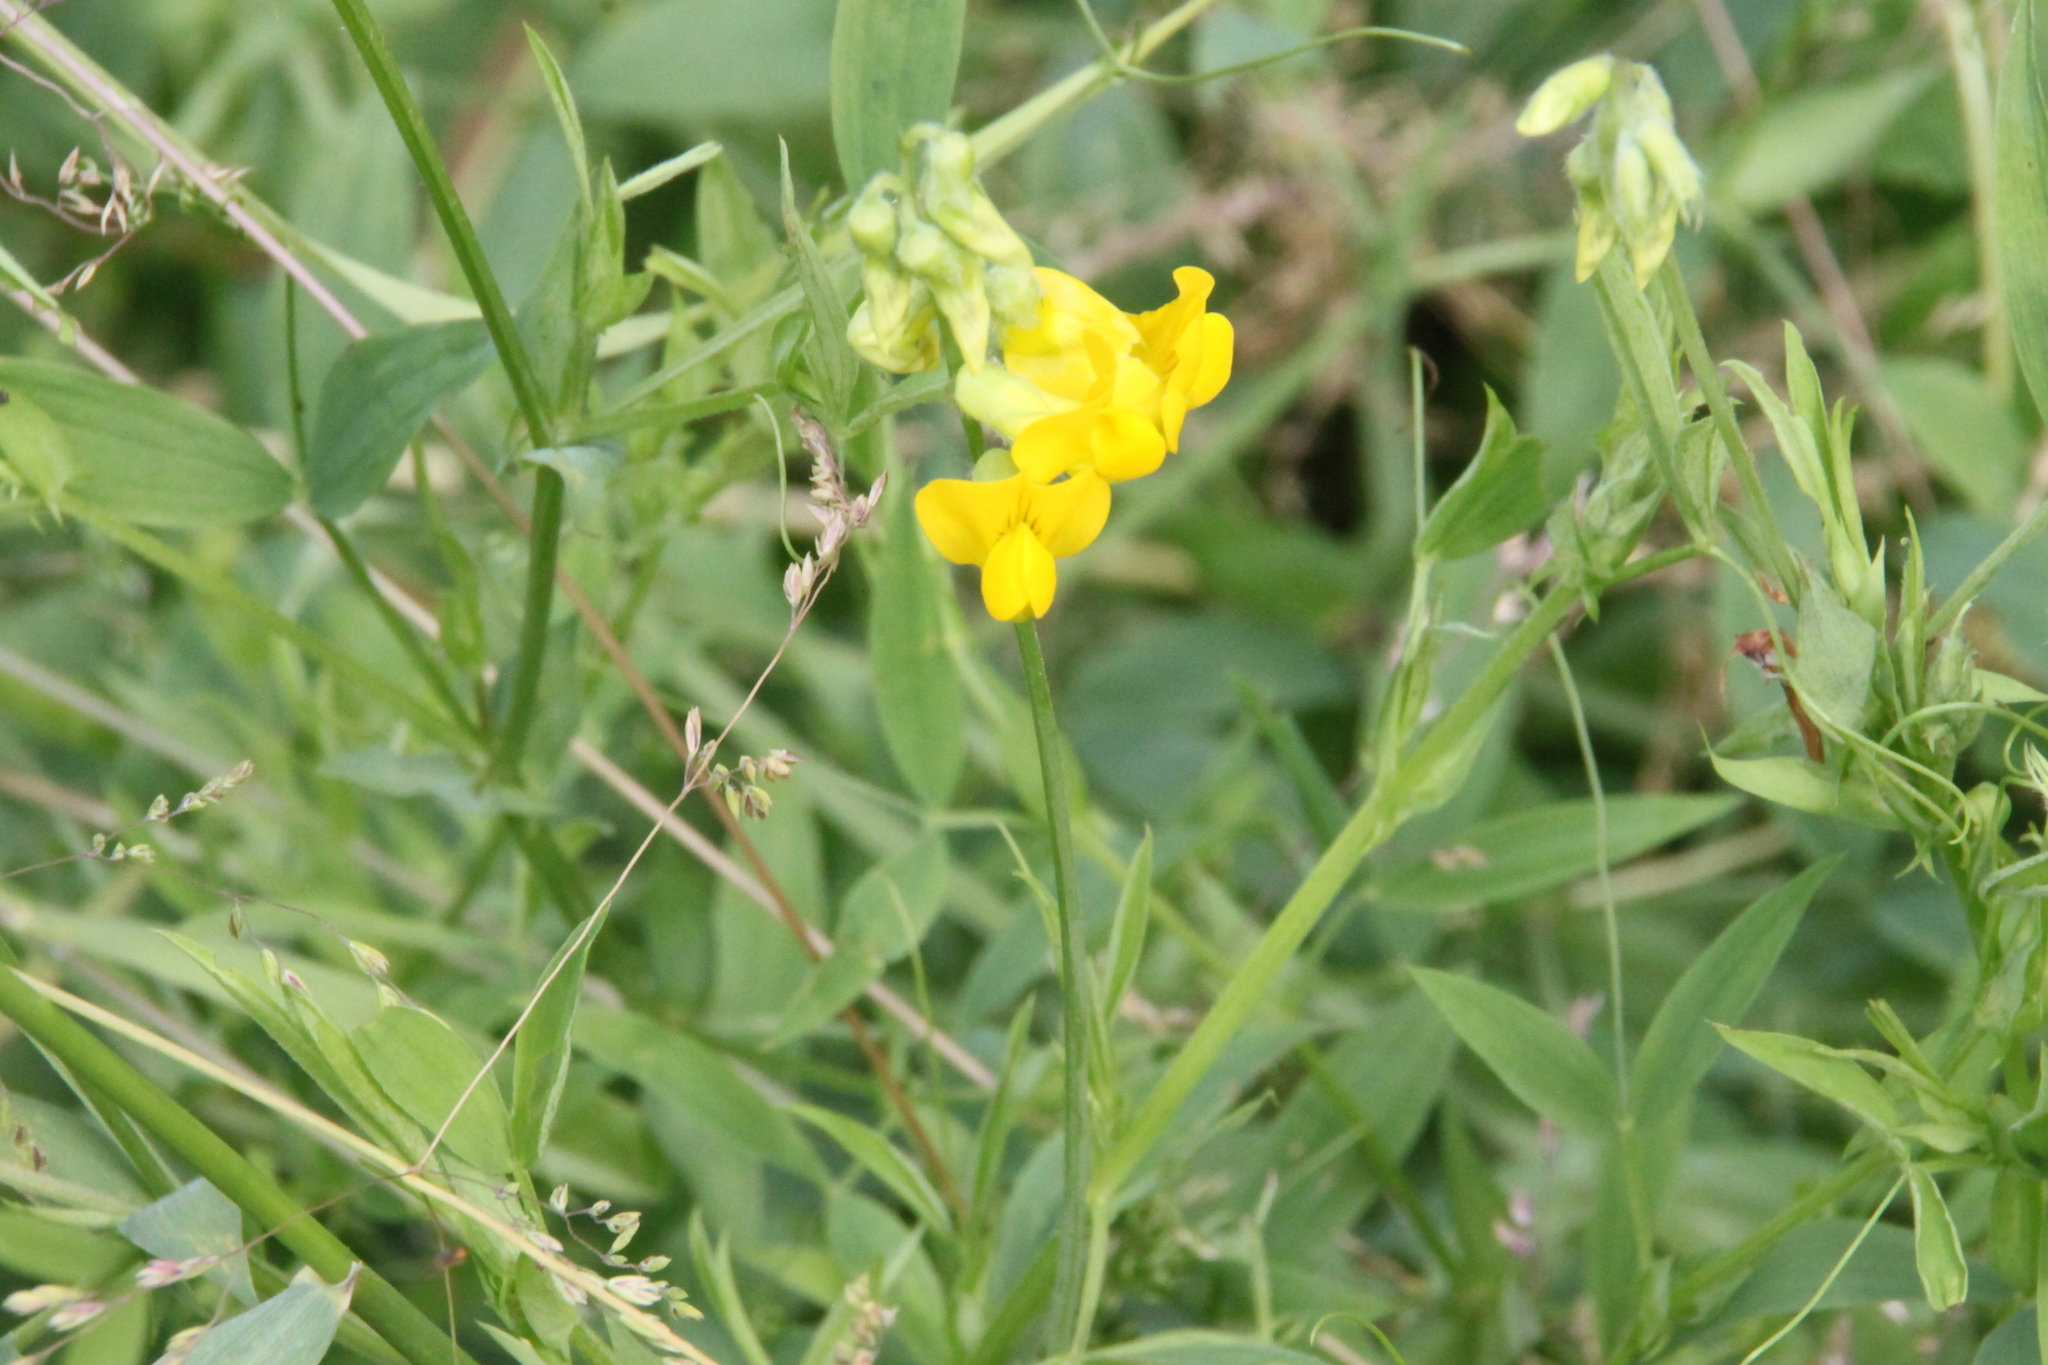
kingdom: Plantae
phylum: Tracheophyta
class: Magnoliopsida
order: Fabales
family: Fabaceae
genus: Lathyrus
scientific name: Lathyrus pratensis
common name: Meadow vetchling
